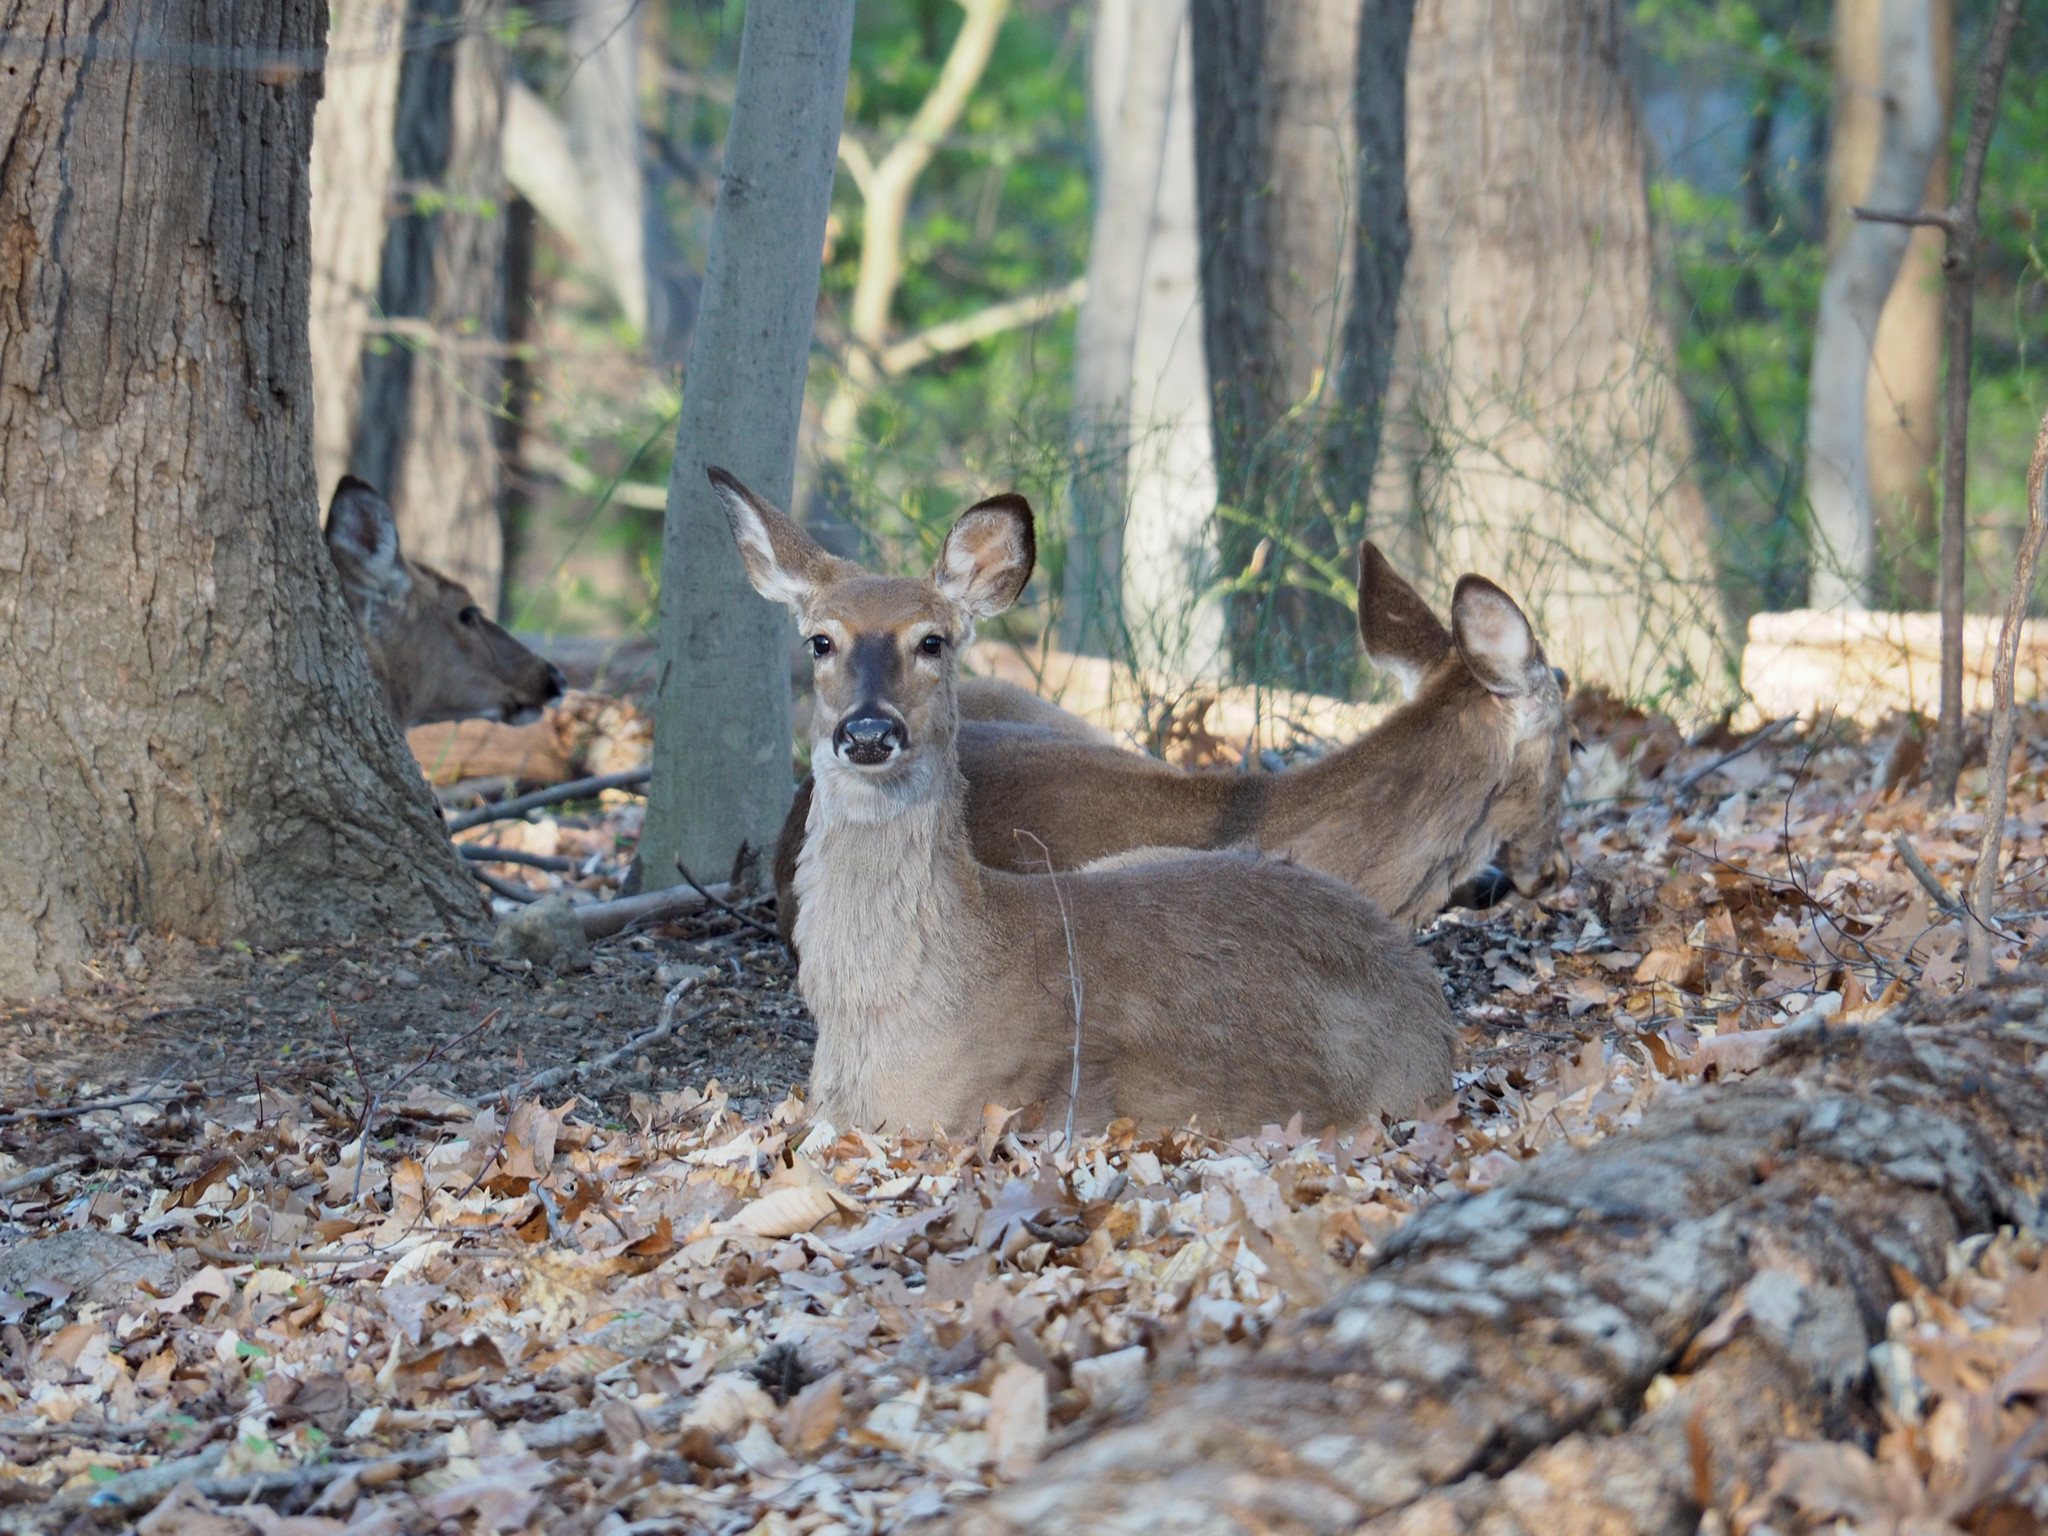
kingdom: Animalia
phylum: Chordata
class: Mammalia
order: Artiodactyla
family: Cervidae
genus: Odocoileus
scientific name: Odocoileus virginianus
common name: White-tailed deer
